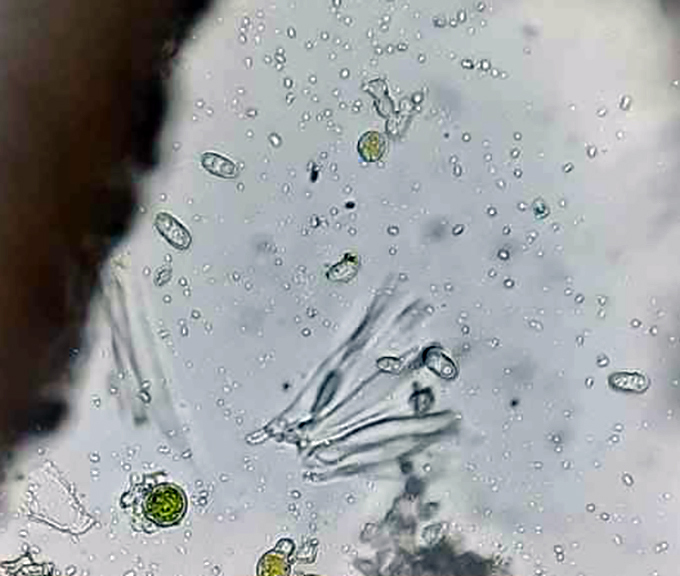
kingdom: Fungi
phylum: Ascomycota
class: Lecanoromycetes
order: Teloschistales
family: Teloschistaceae
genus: Calogaya
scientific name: Calogaya saxicola
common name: Rock jewel lichen
